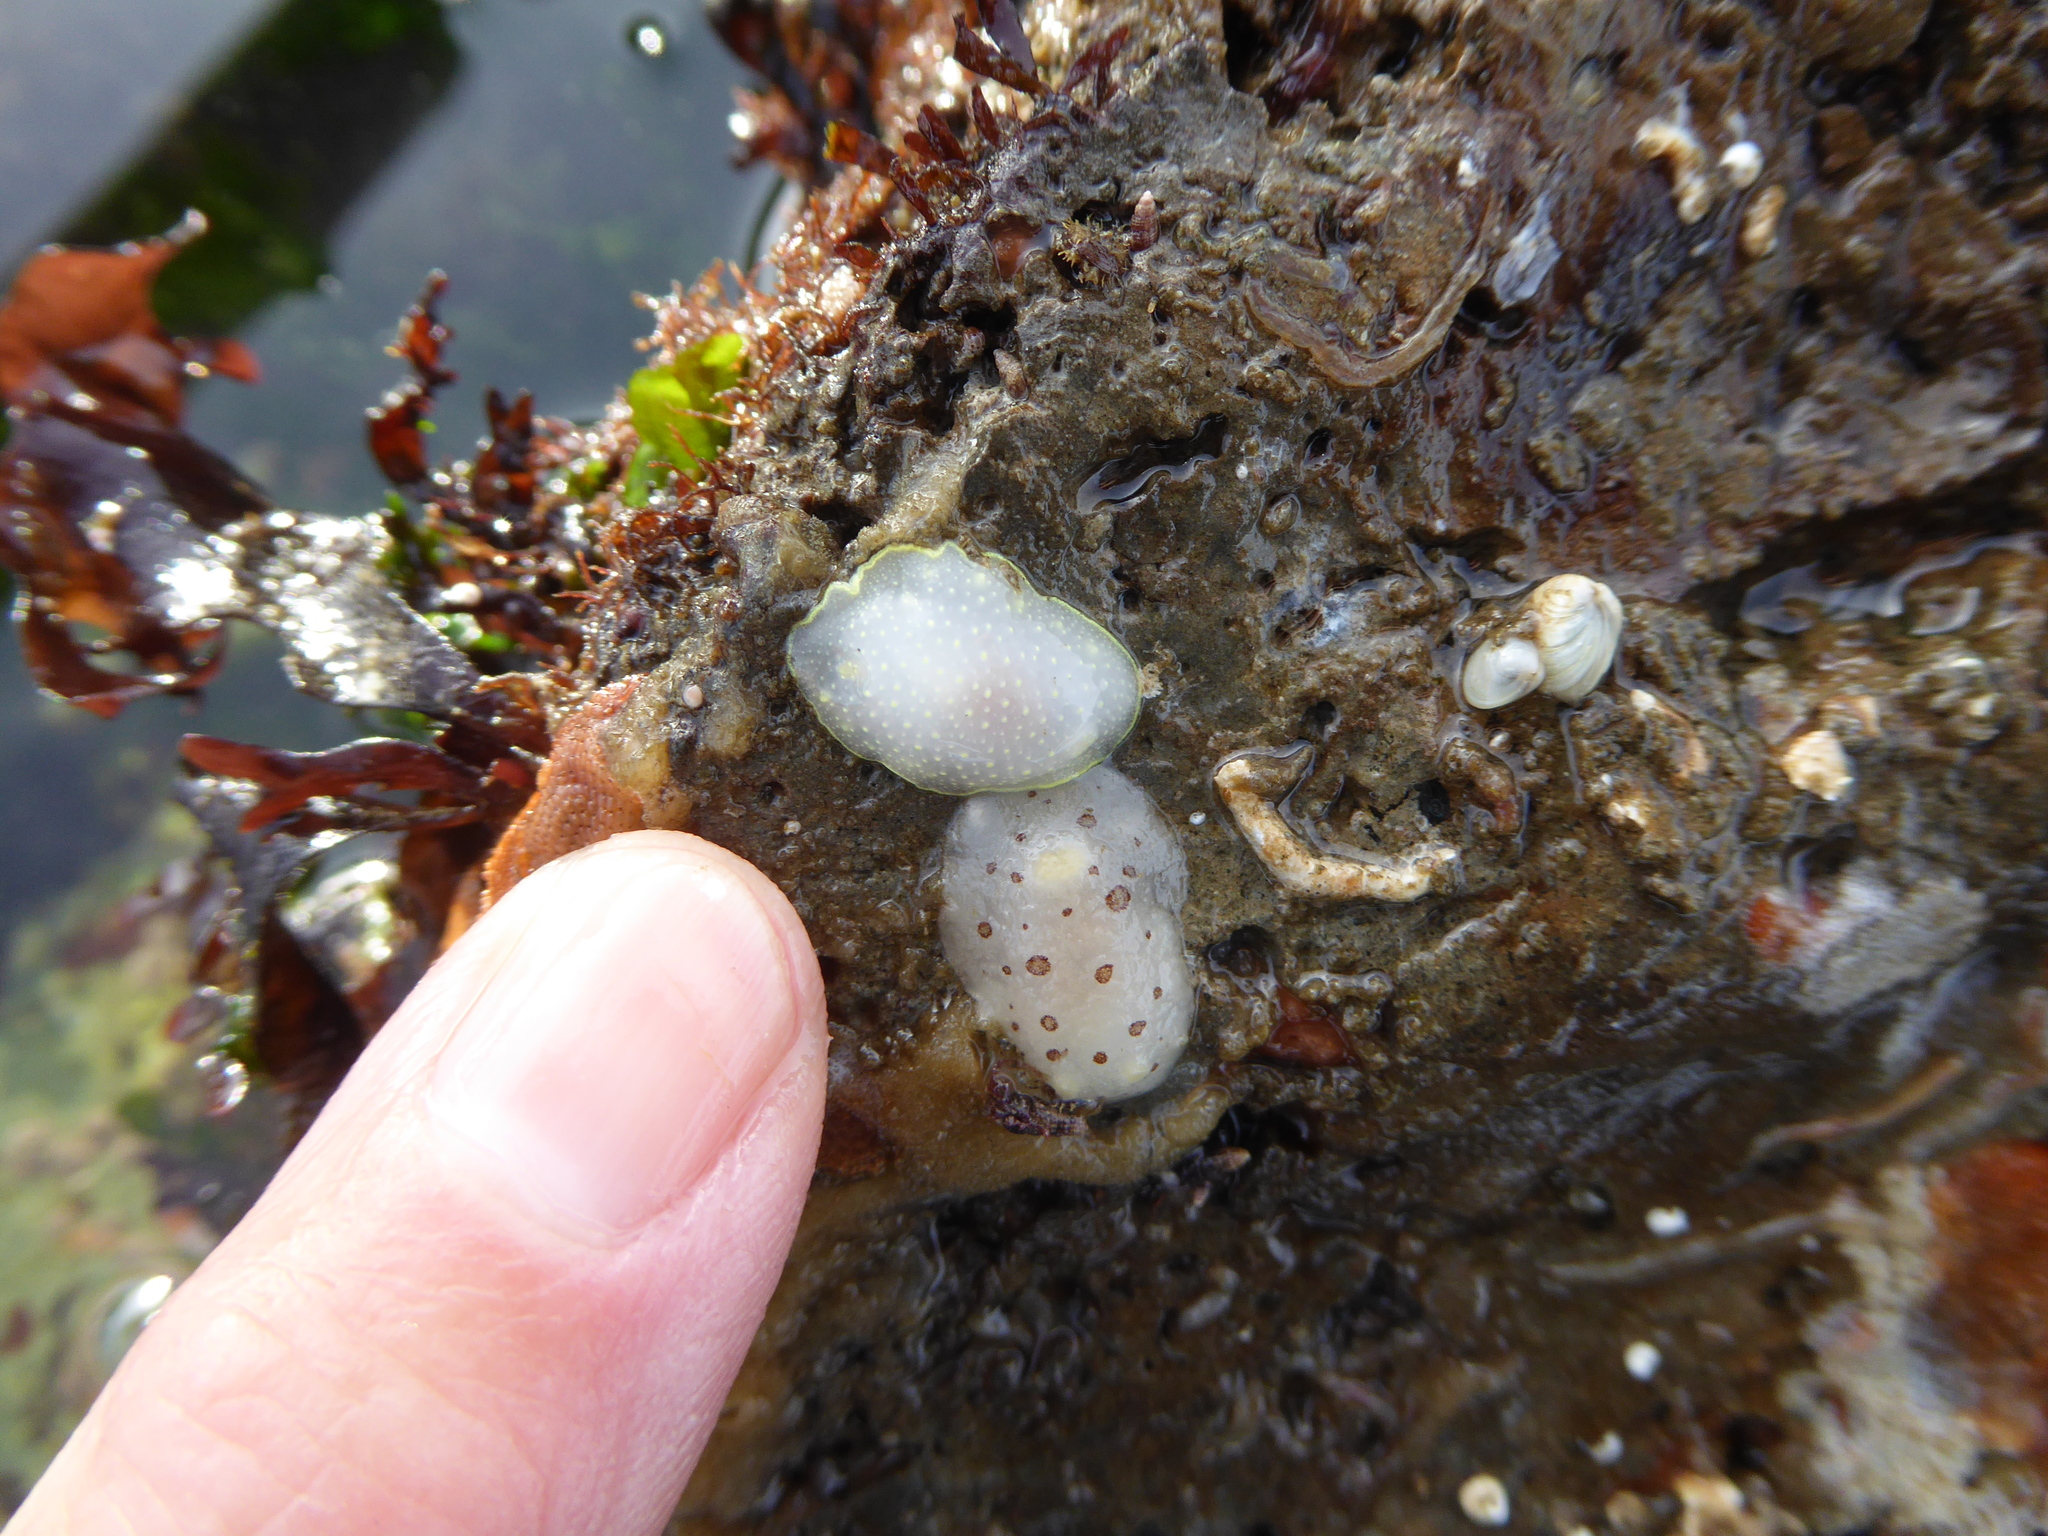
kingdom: Animalia
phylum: Mollusca
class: Gastropoda
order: Nudibranchia
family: Cadlinidae
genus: Cadlina
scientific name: Cadlina luteomarginata
